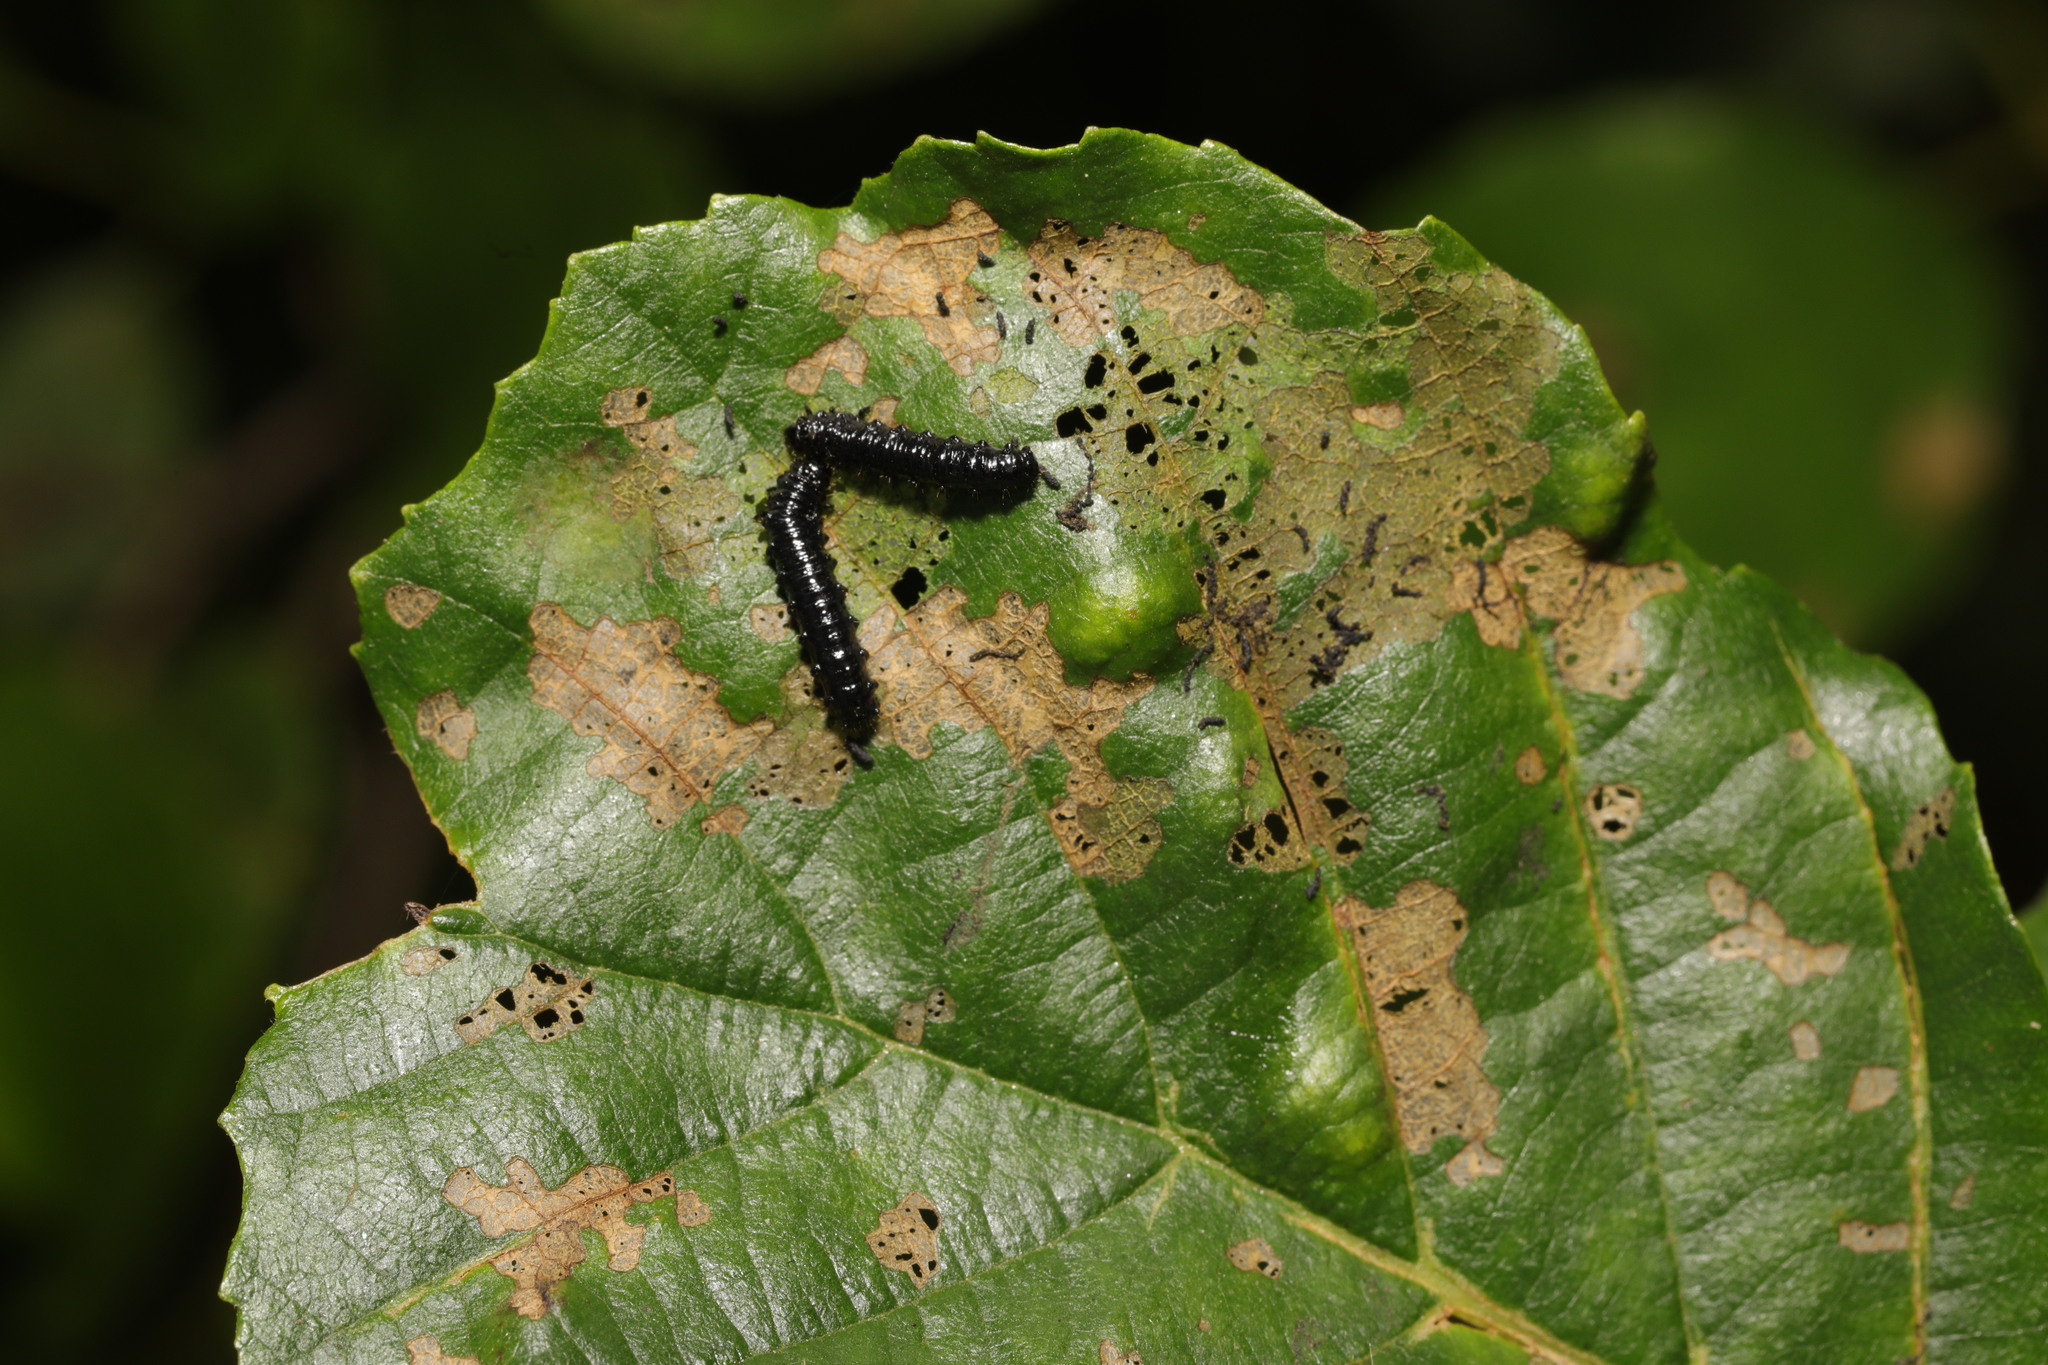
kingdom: Animalia
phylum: Arthropoda
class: Insecta
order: Coleoptera
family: Chrysomelidae
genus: Agelastica
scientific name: Agelastica alni
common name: Alder leaf beetle
